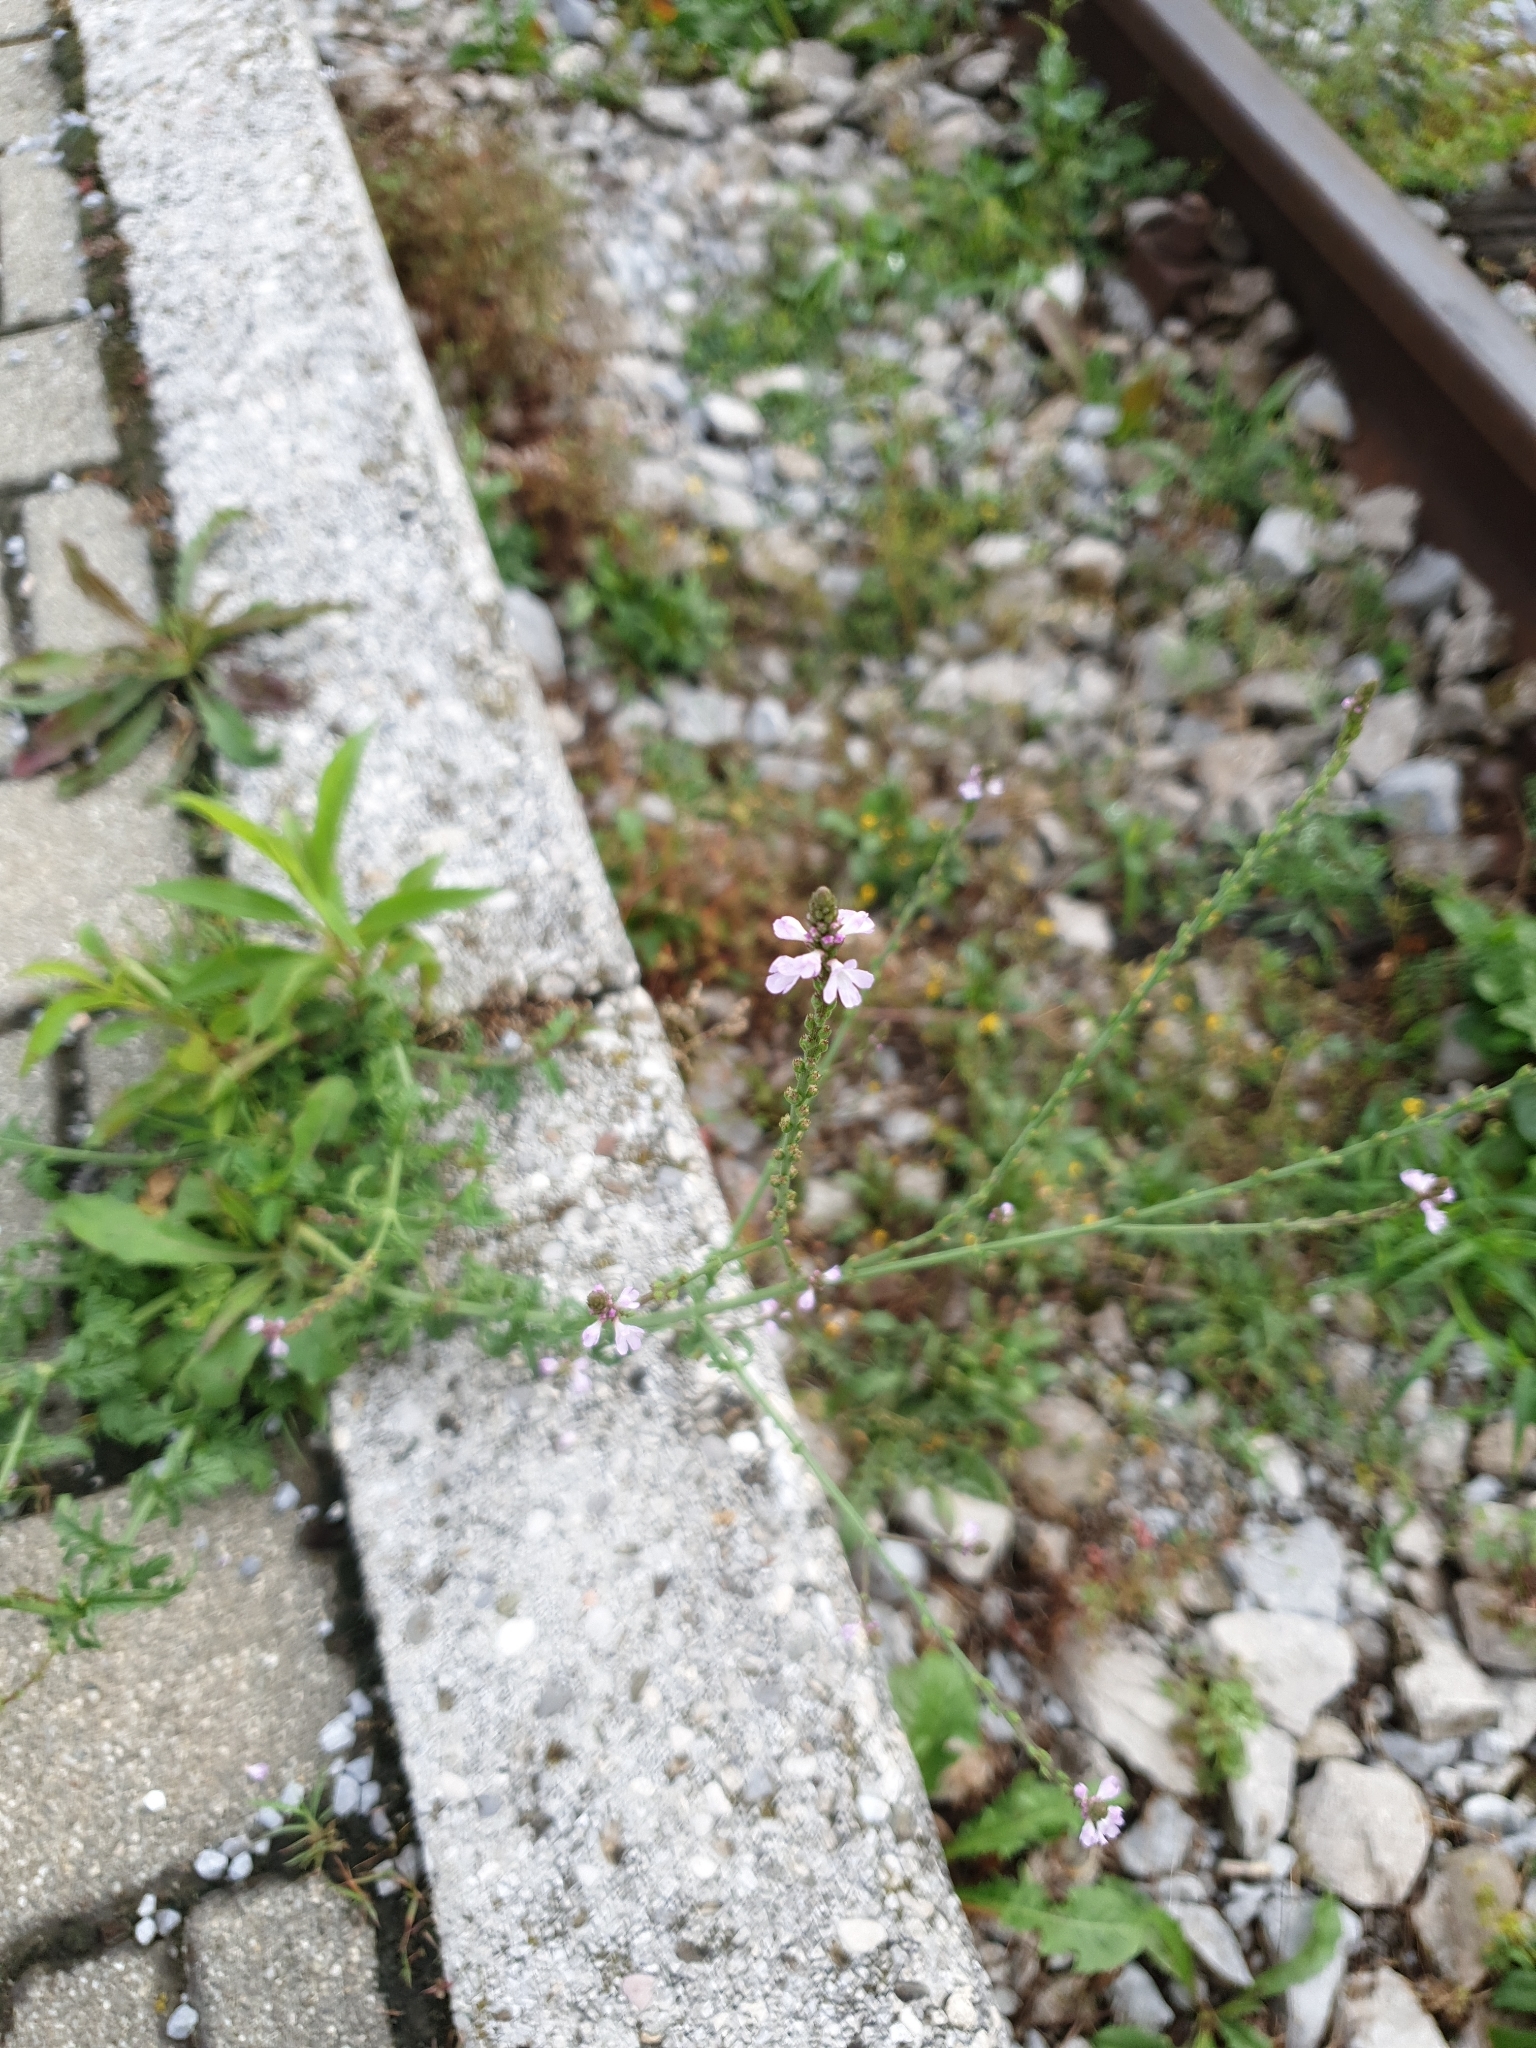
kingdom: Plantae
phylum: Tracheophyta
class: Magnoliopsida
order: Lamiales
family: Verbenaceae
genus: Verbena
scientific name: Verbena officinalis
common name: Vervain
